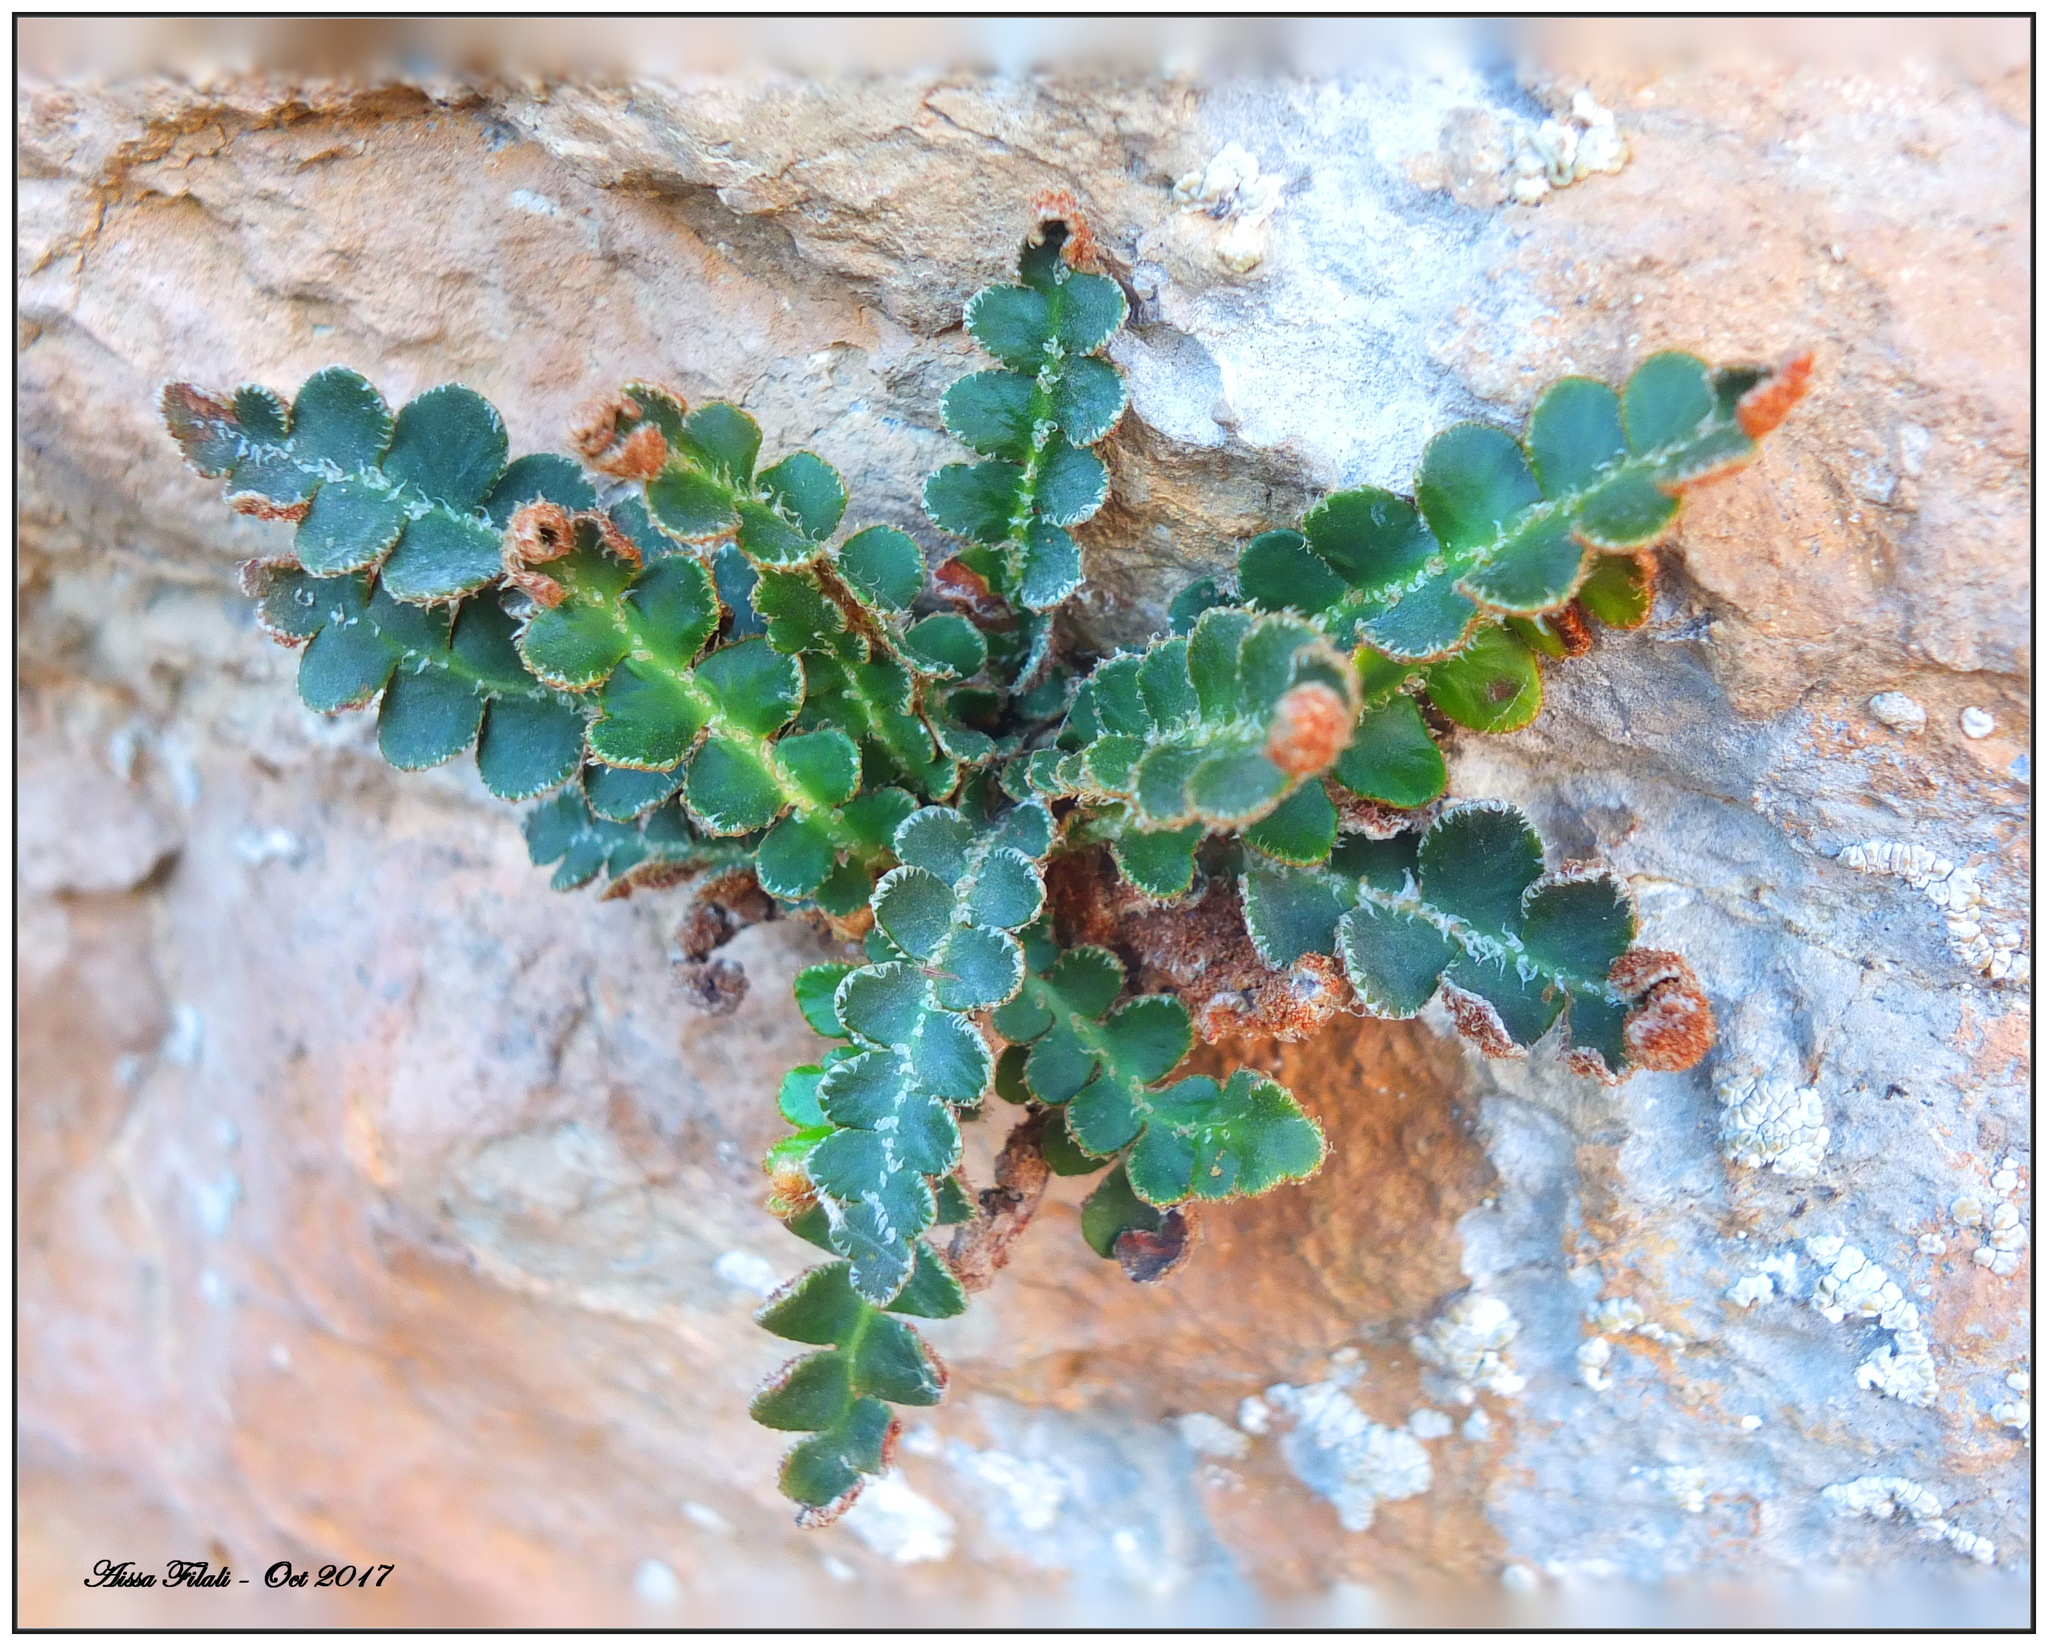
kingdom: Plantae
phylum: Tracheophyta
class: Polypodiopsida
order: Polypodiales
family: Aspleniaceae
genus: Asplenium
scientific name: Asplenium ceterach
